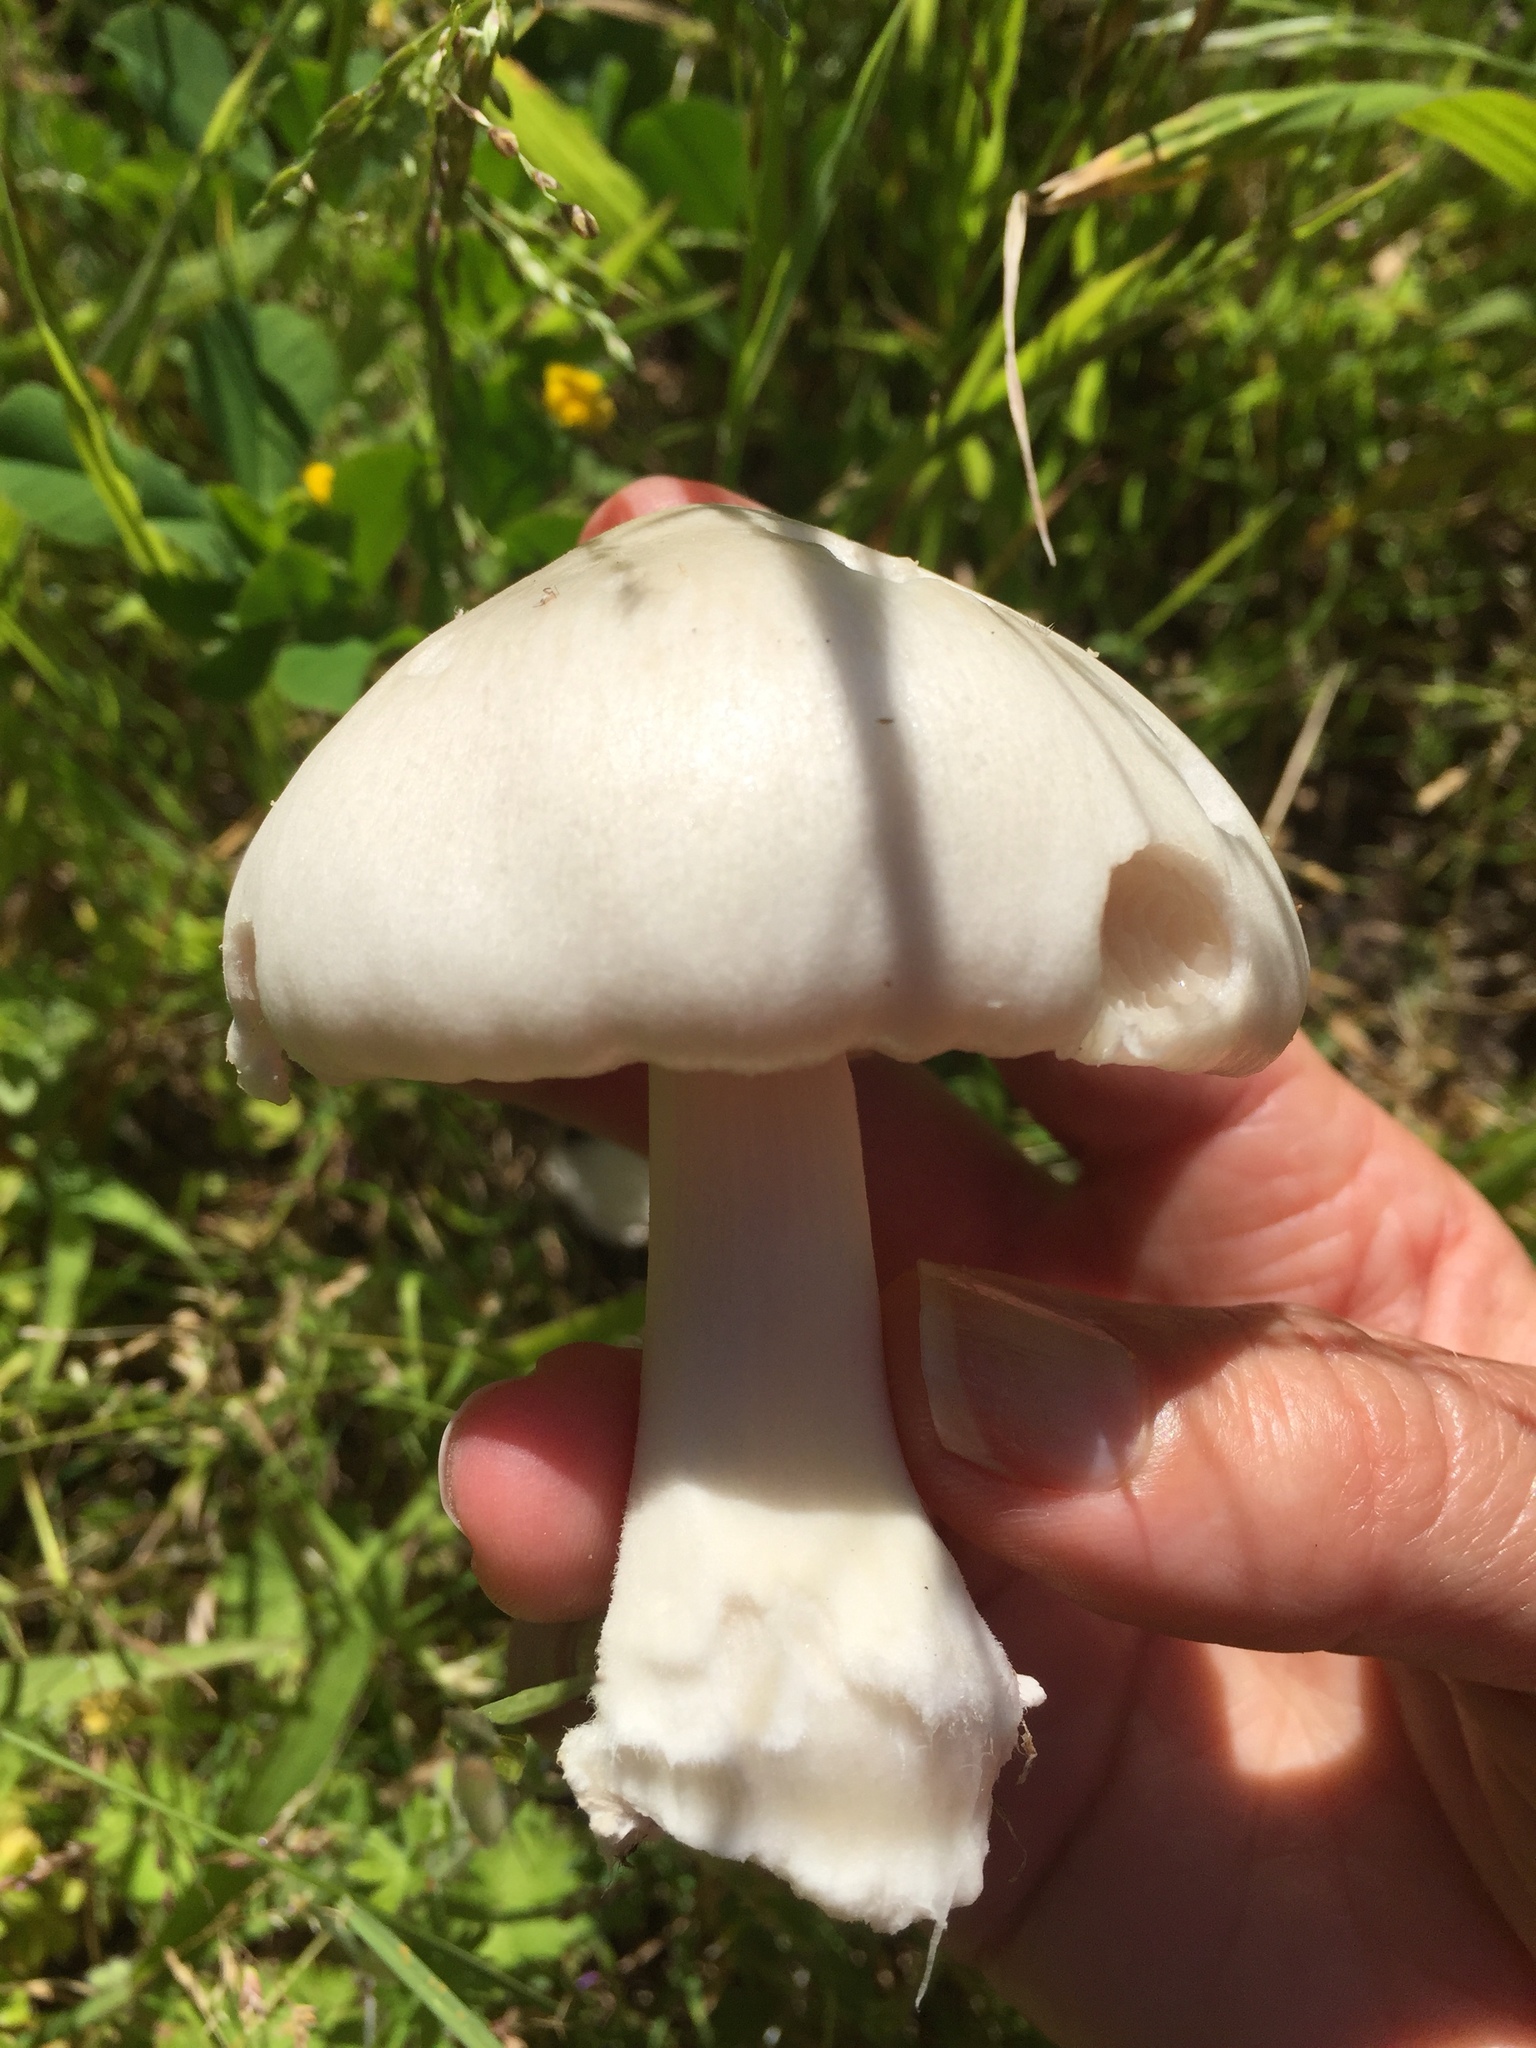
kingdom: Fungi
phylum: Basidiomycota
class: Agaricomycetes
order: Agaricales
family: Pluteaceae
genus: Volvopluteus
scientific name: Volvopluteus gloiocephalus
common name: Stubble rosegill
